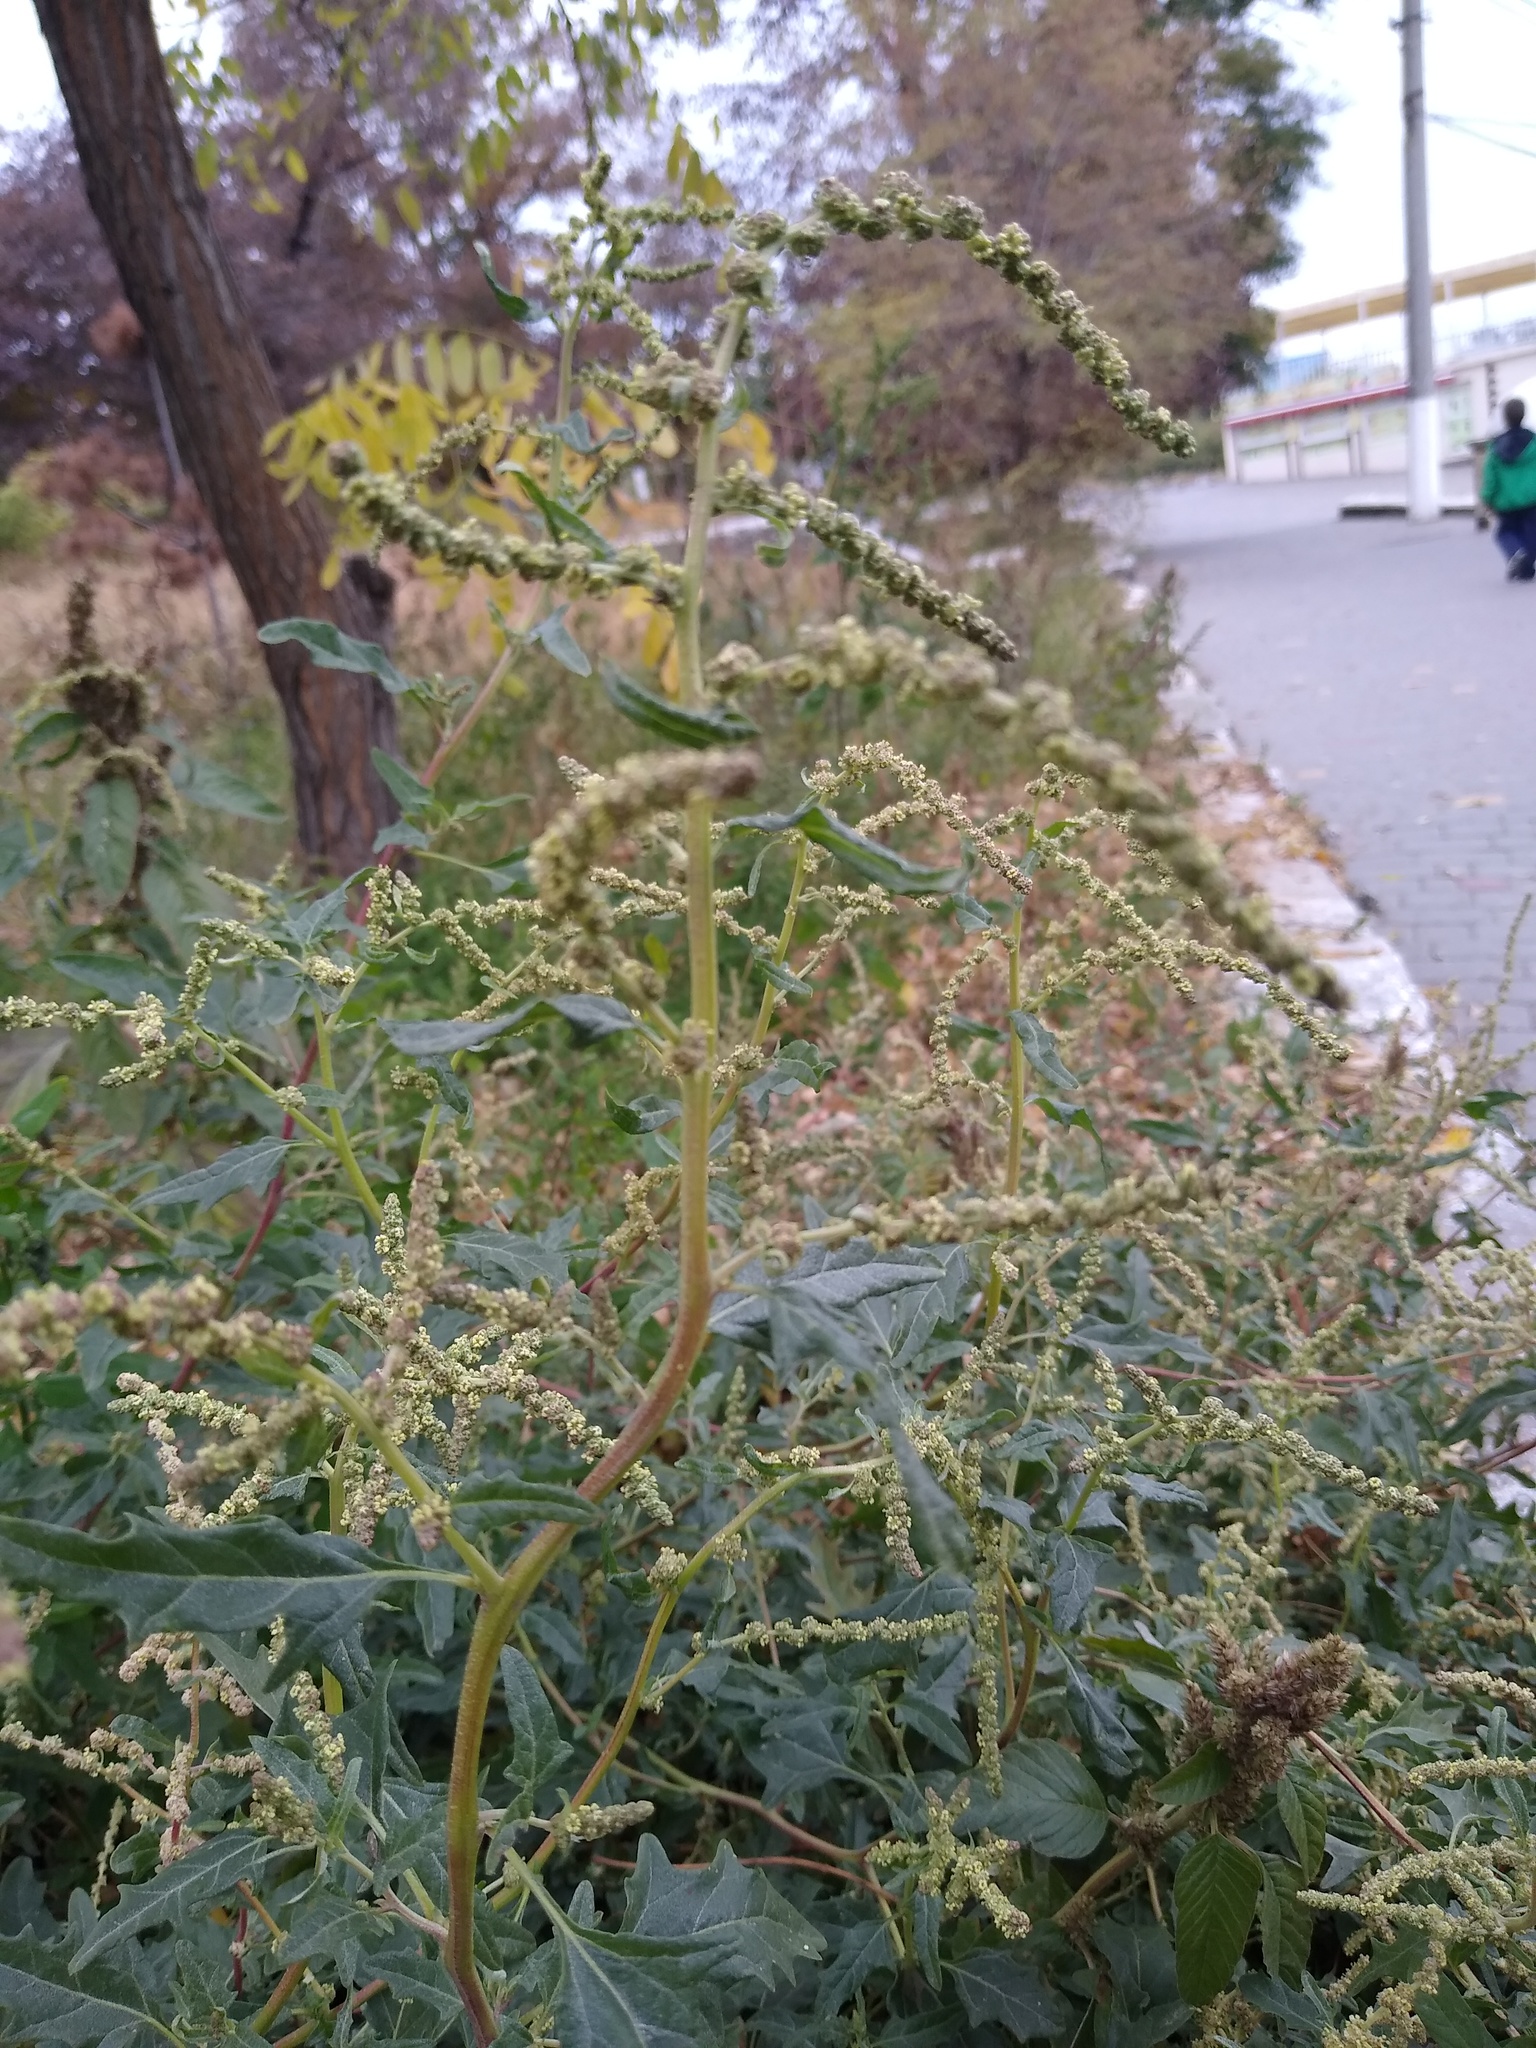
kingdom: Plantae
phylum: Tracheophyta
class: Magnoliopsida
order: Caryophyllales
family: Amaranthaceae
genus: Atriplex
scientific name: Atriplex tatarica
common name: Tatarian orache
